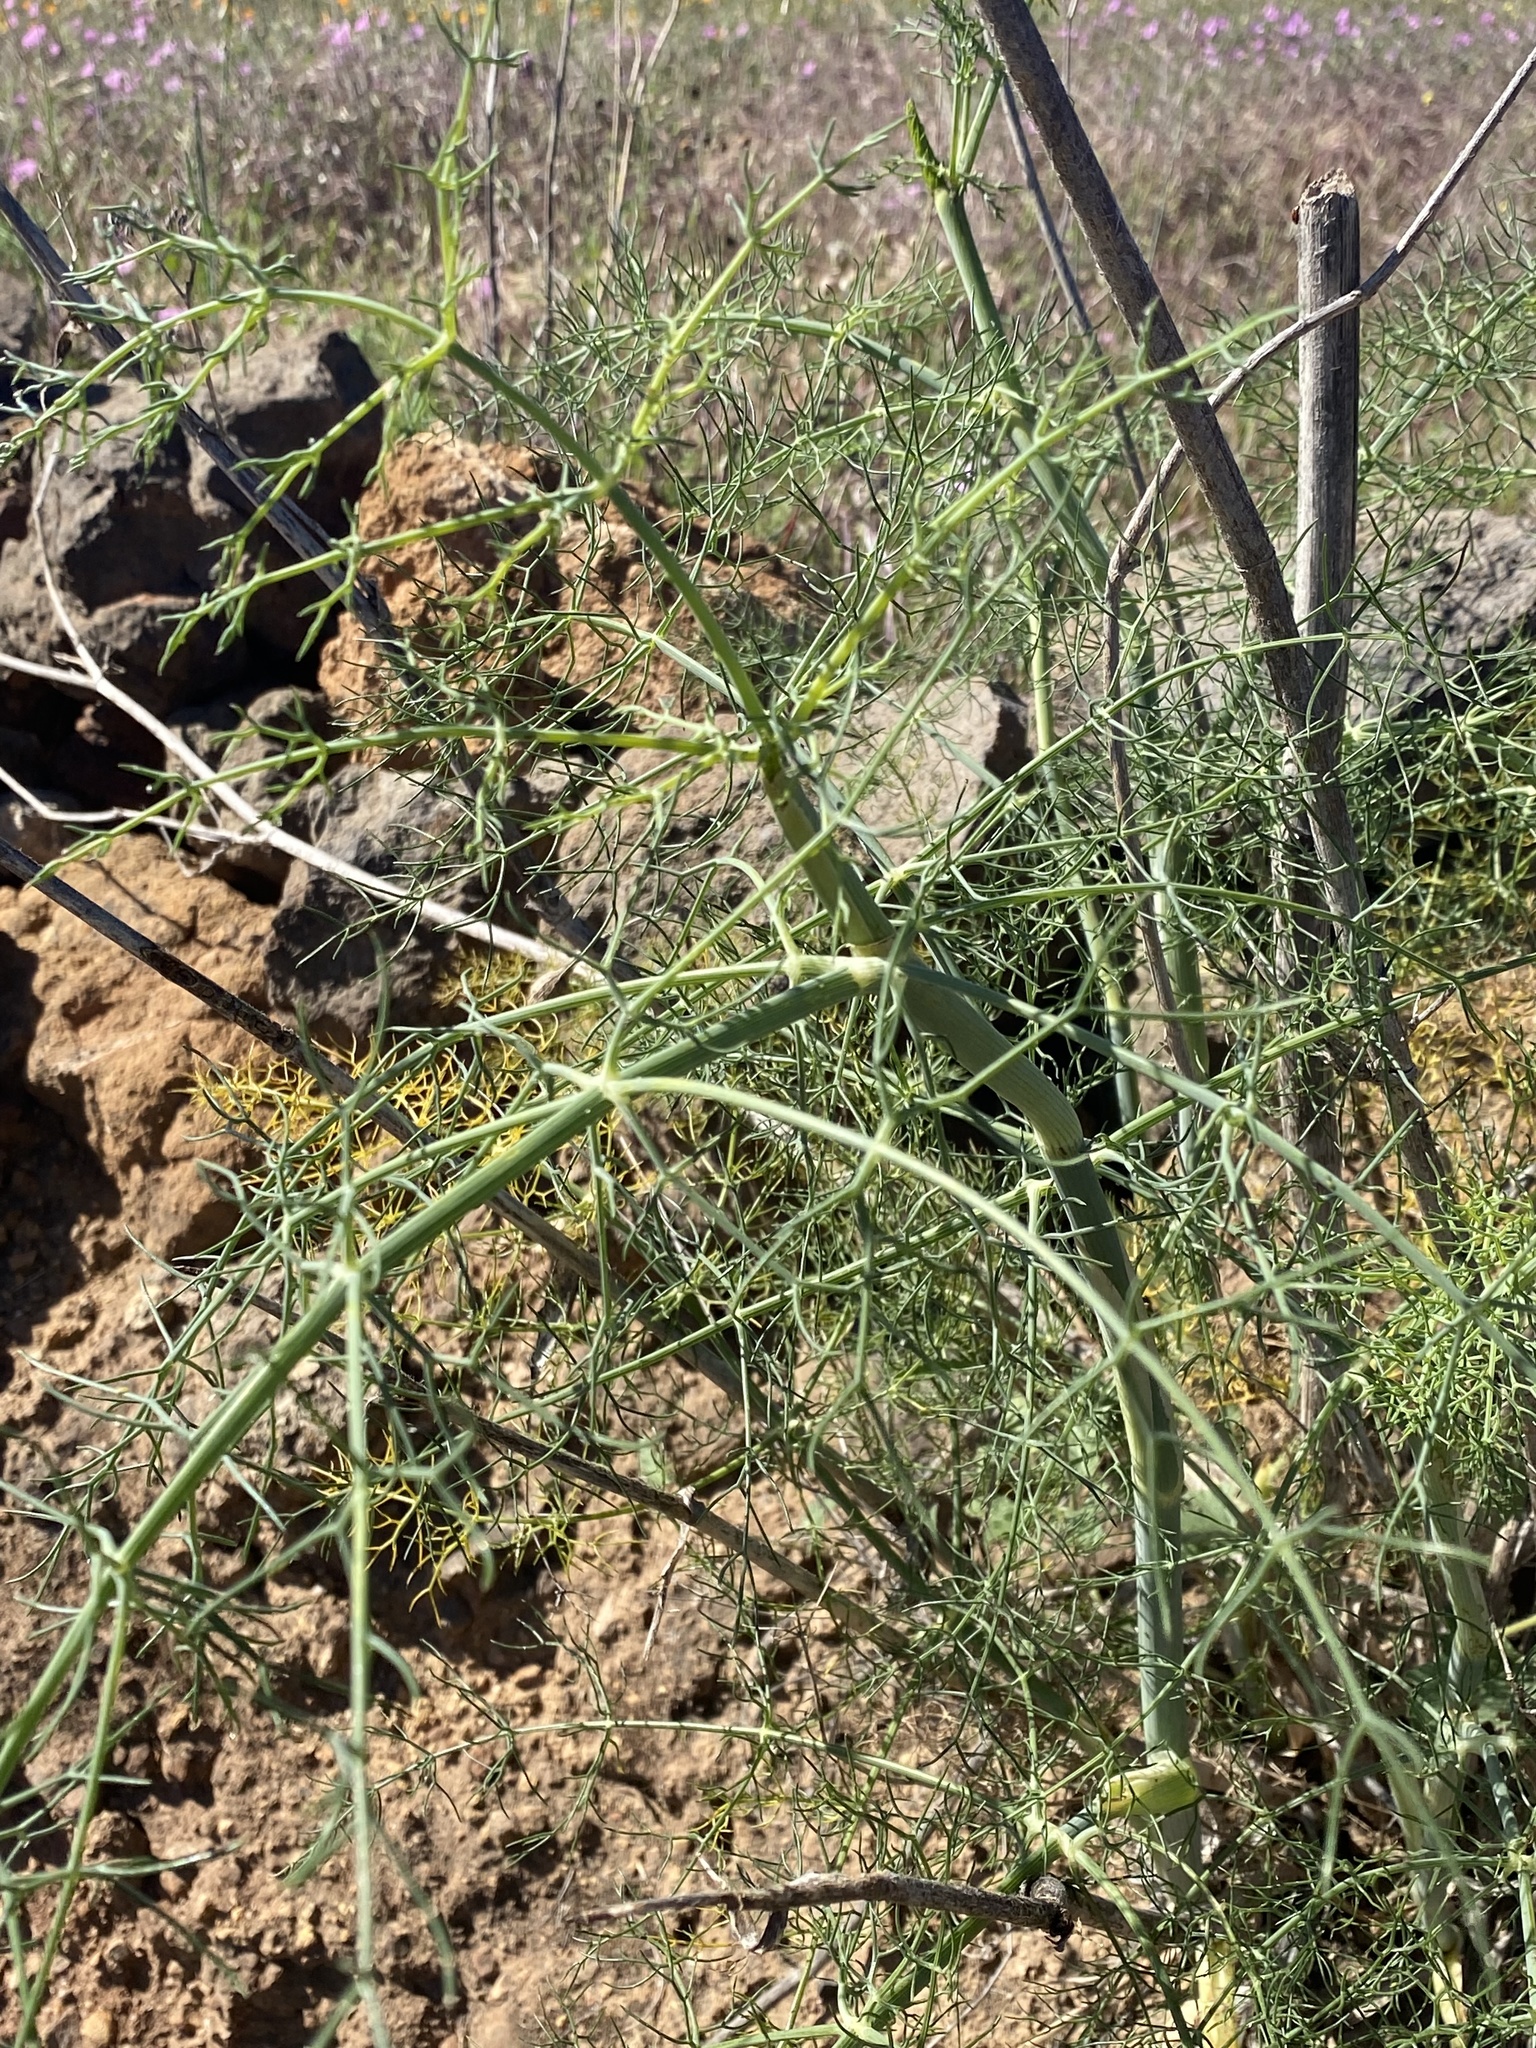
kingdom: Plantae
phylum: Tracheophyta
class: Magnoliopsida
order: Apiales
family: Apiaceae
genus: Foeniculum
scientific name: Foeniculum vulgare
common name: Fennel
